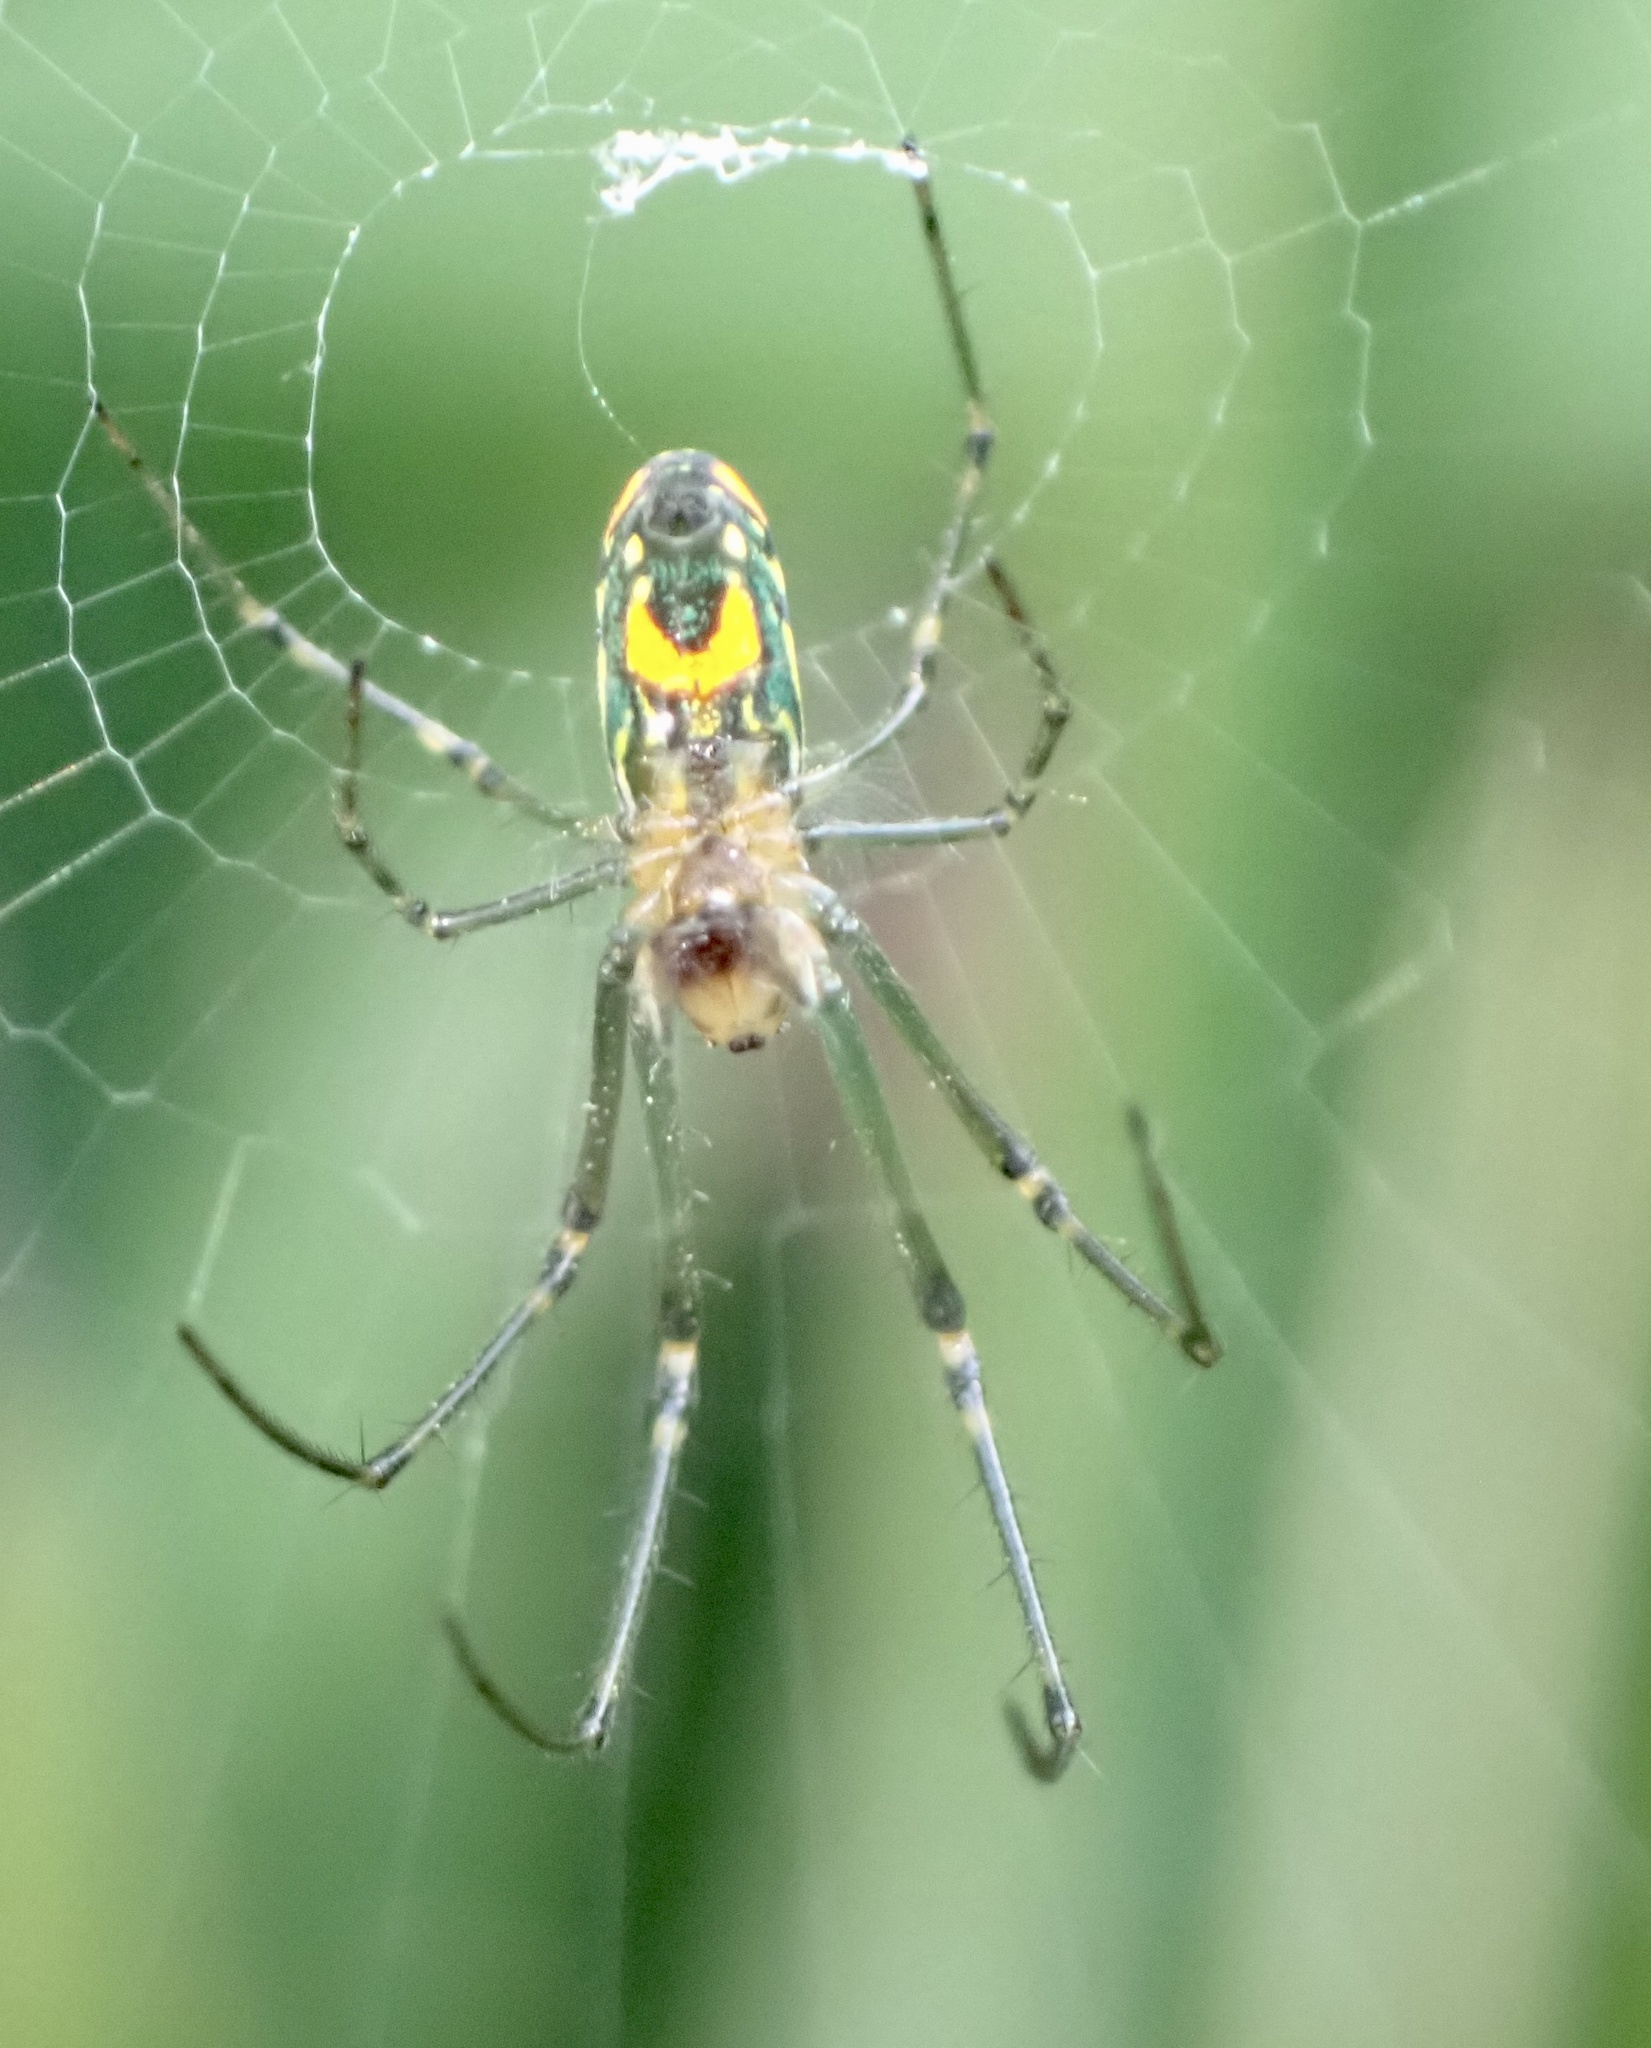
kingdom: Animalia
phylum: Arthropoda
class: Arachnida
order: Araneae
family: Tetragnathidae
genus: Leucauge
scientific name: Leucauge argyrobapta
